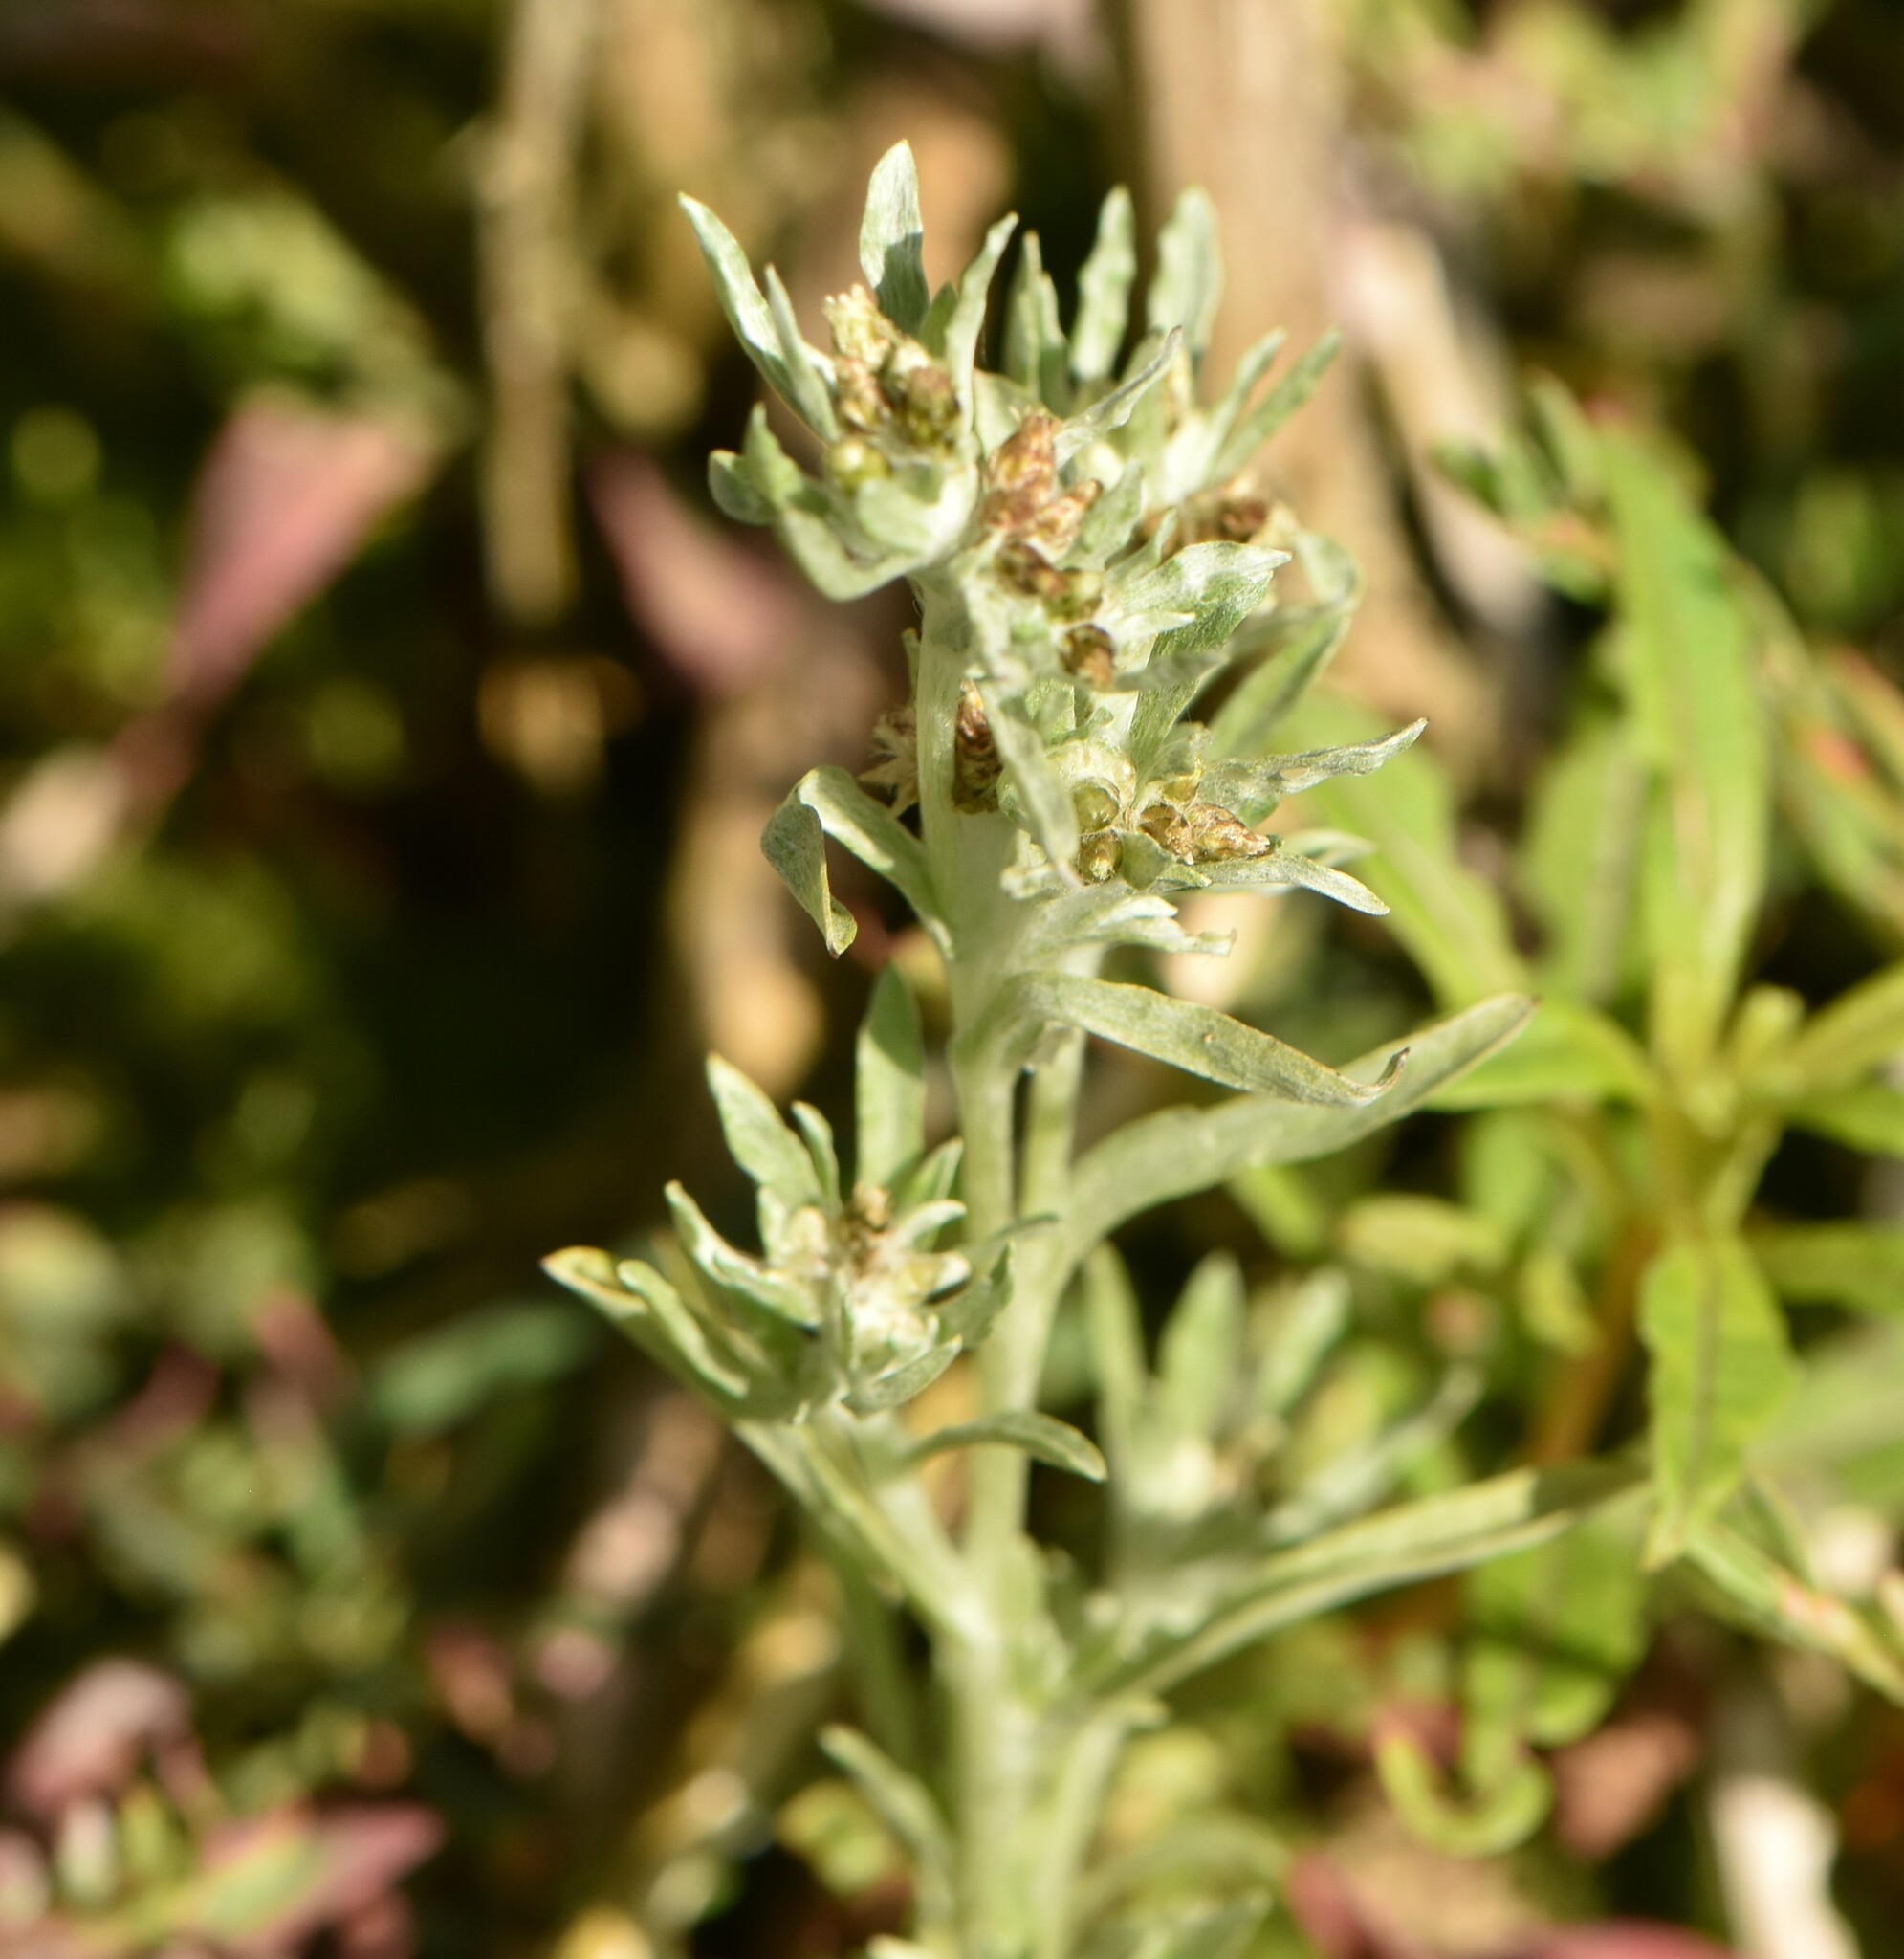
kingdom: Plantae
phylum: Tracheophyta
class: Magnoliopsida
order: Asterales
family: Asteraceae
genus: Gnaphalium
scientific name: Gnaphalium uliginosum
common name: Marsh cudweed
